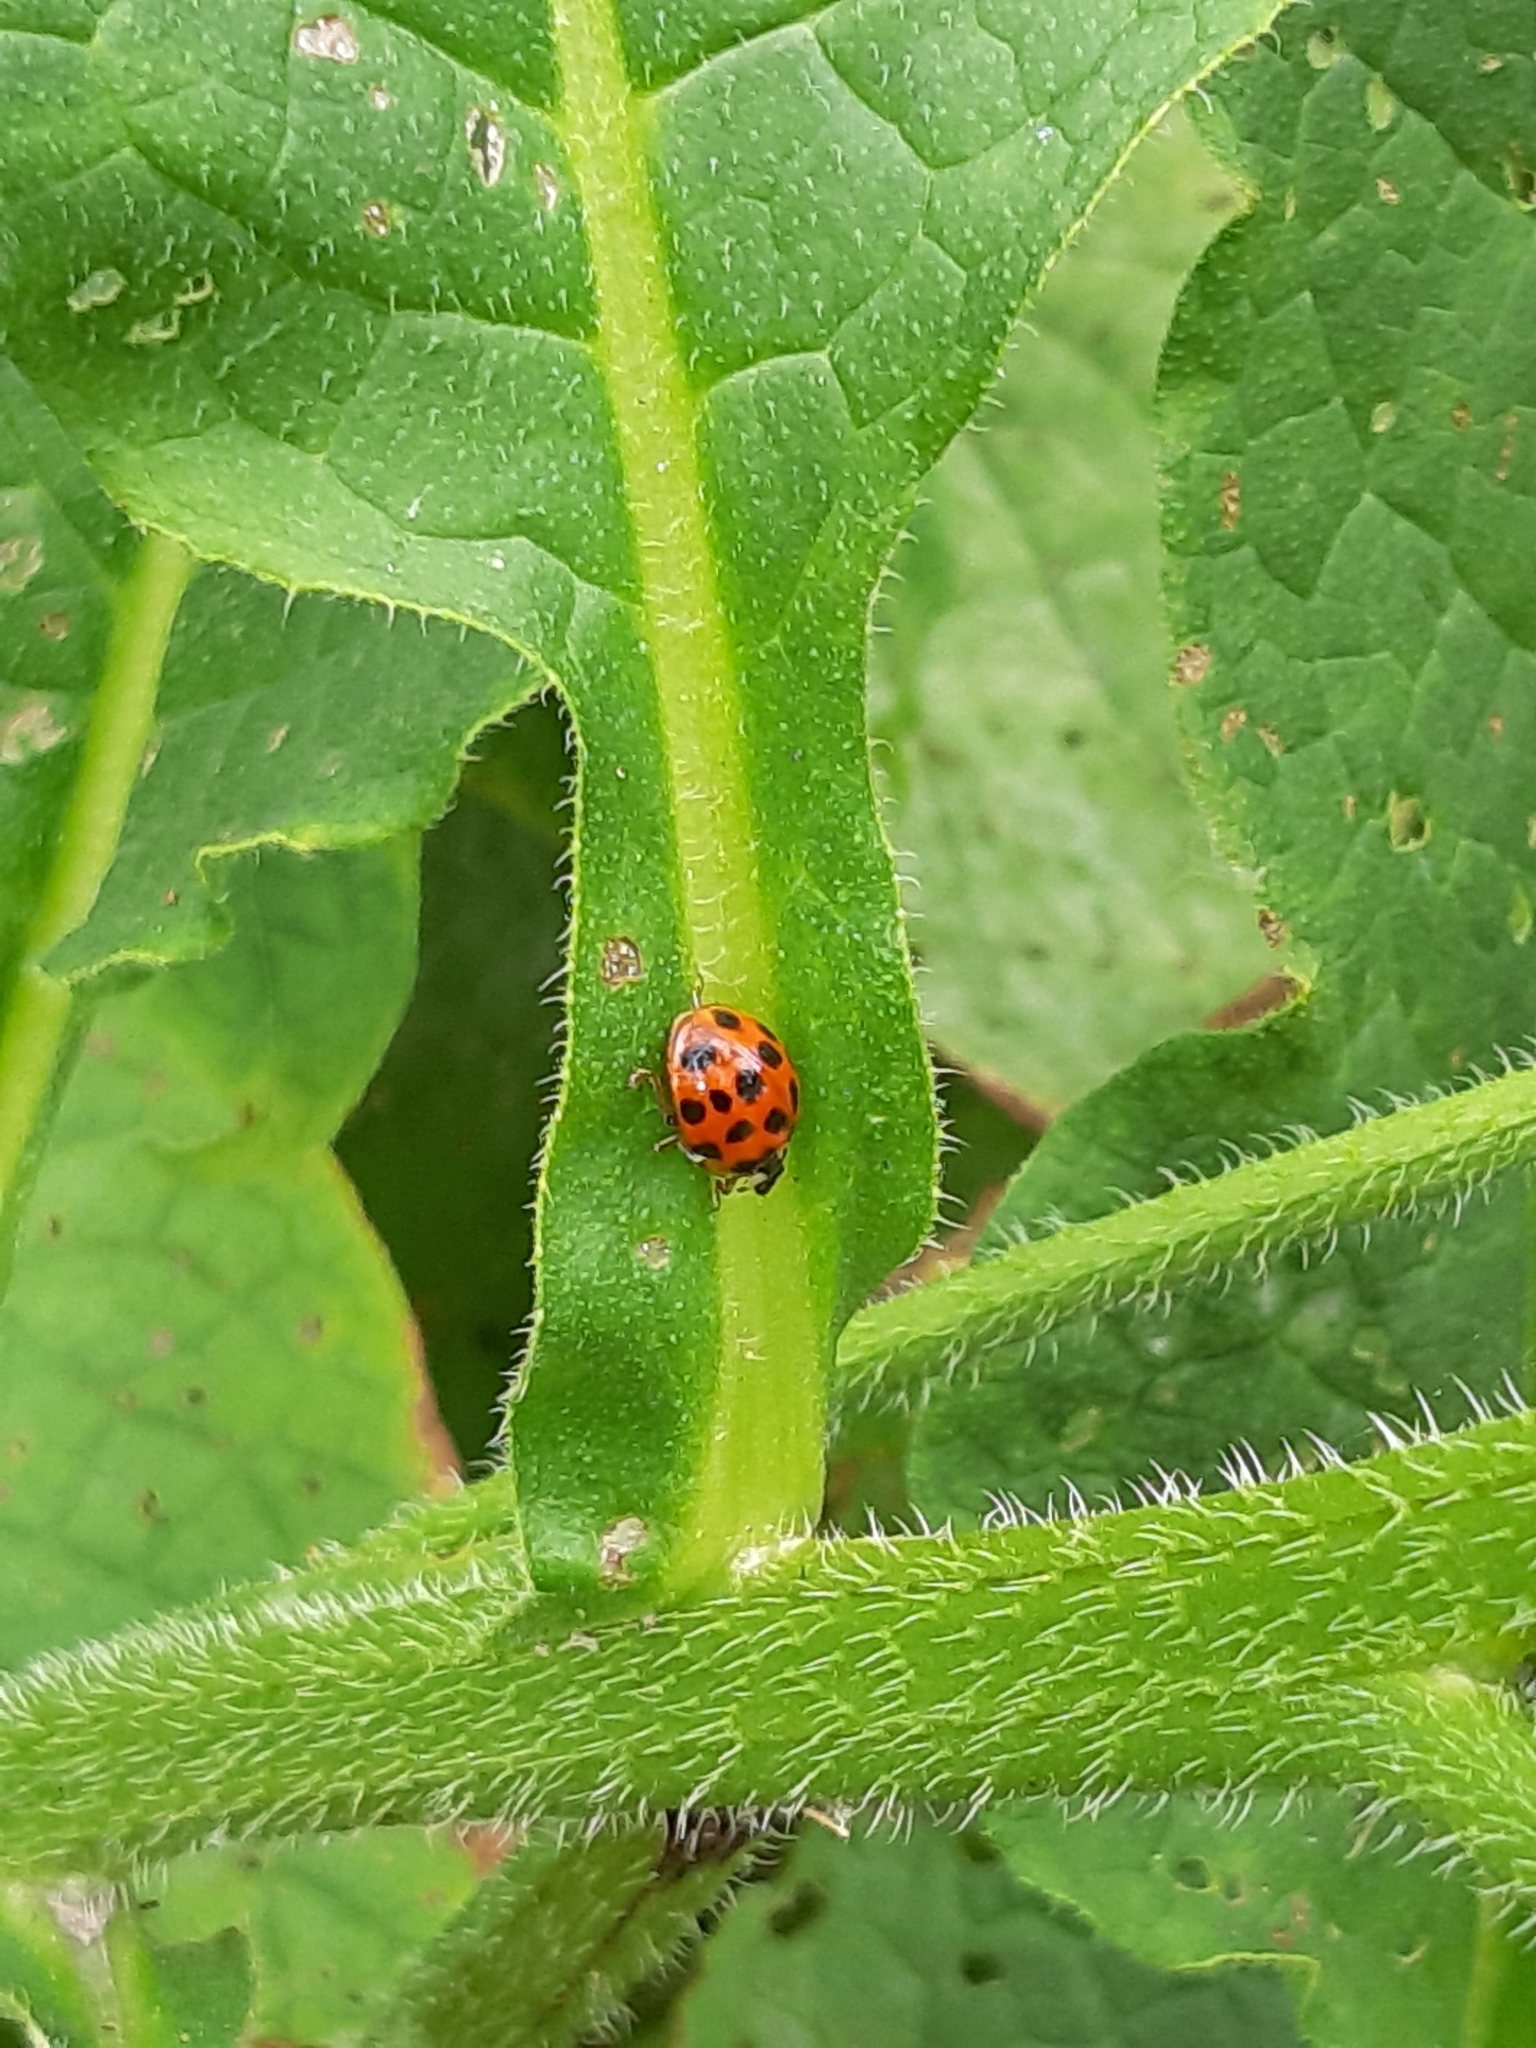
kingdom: Animalia
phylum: Arthropoda
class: Insecta
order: Coleoptera
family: Coccinellidae
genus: Harmonia
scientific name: Harmonia axyridis
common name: Harlequin ladybird
